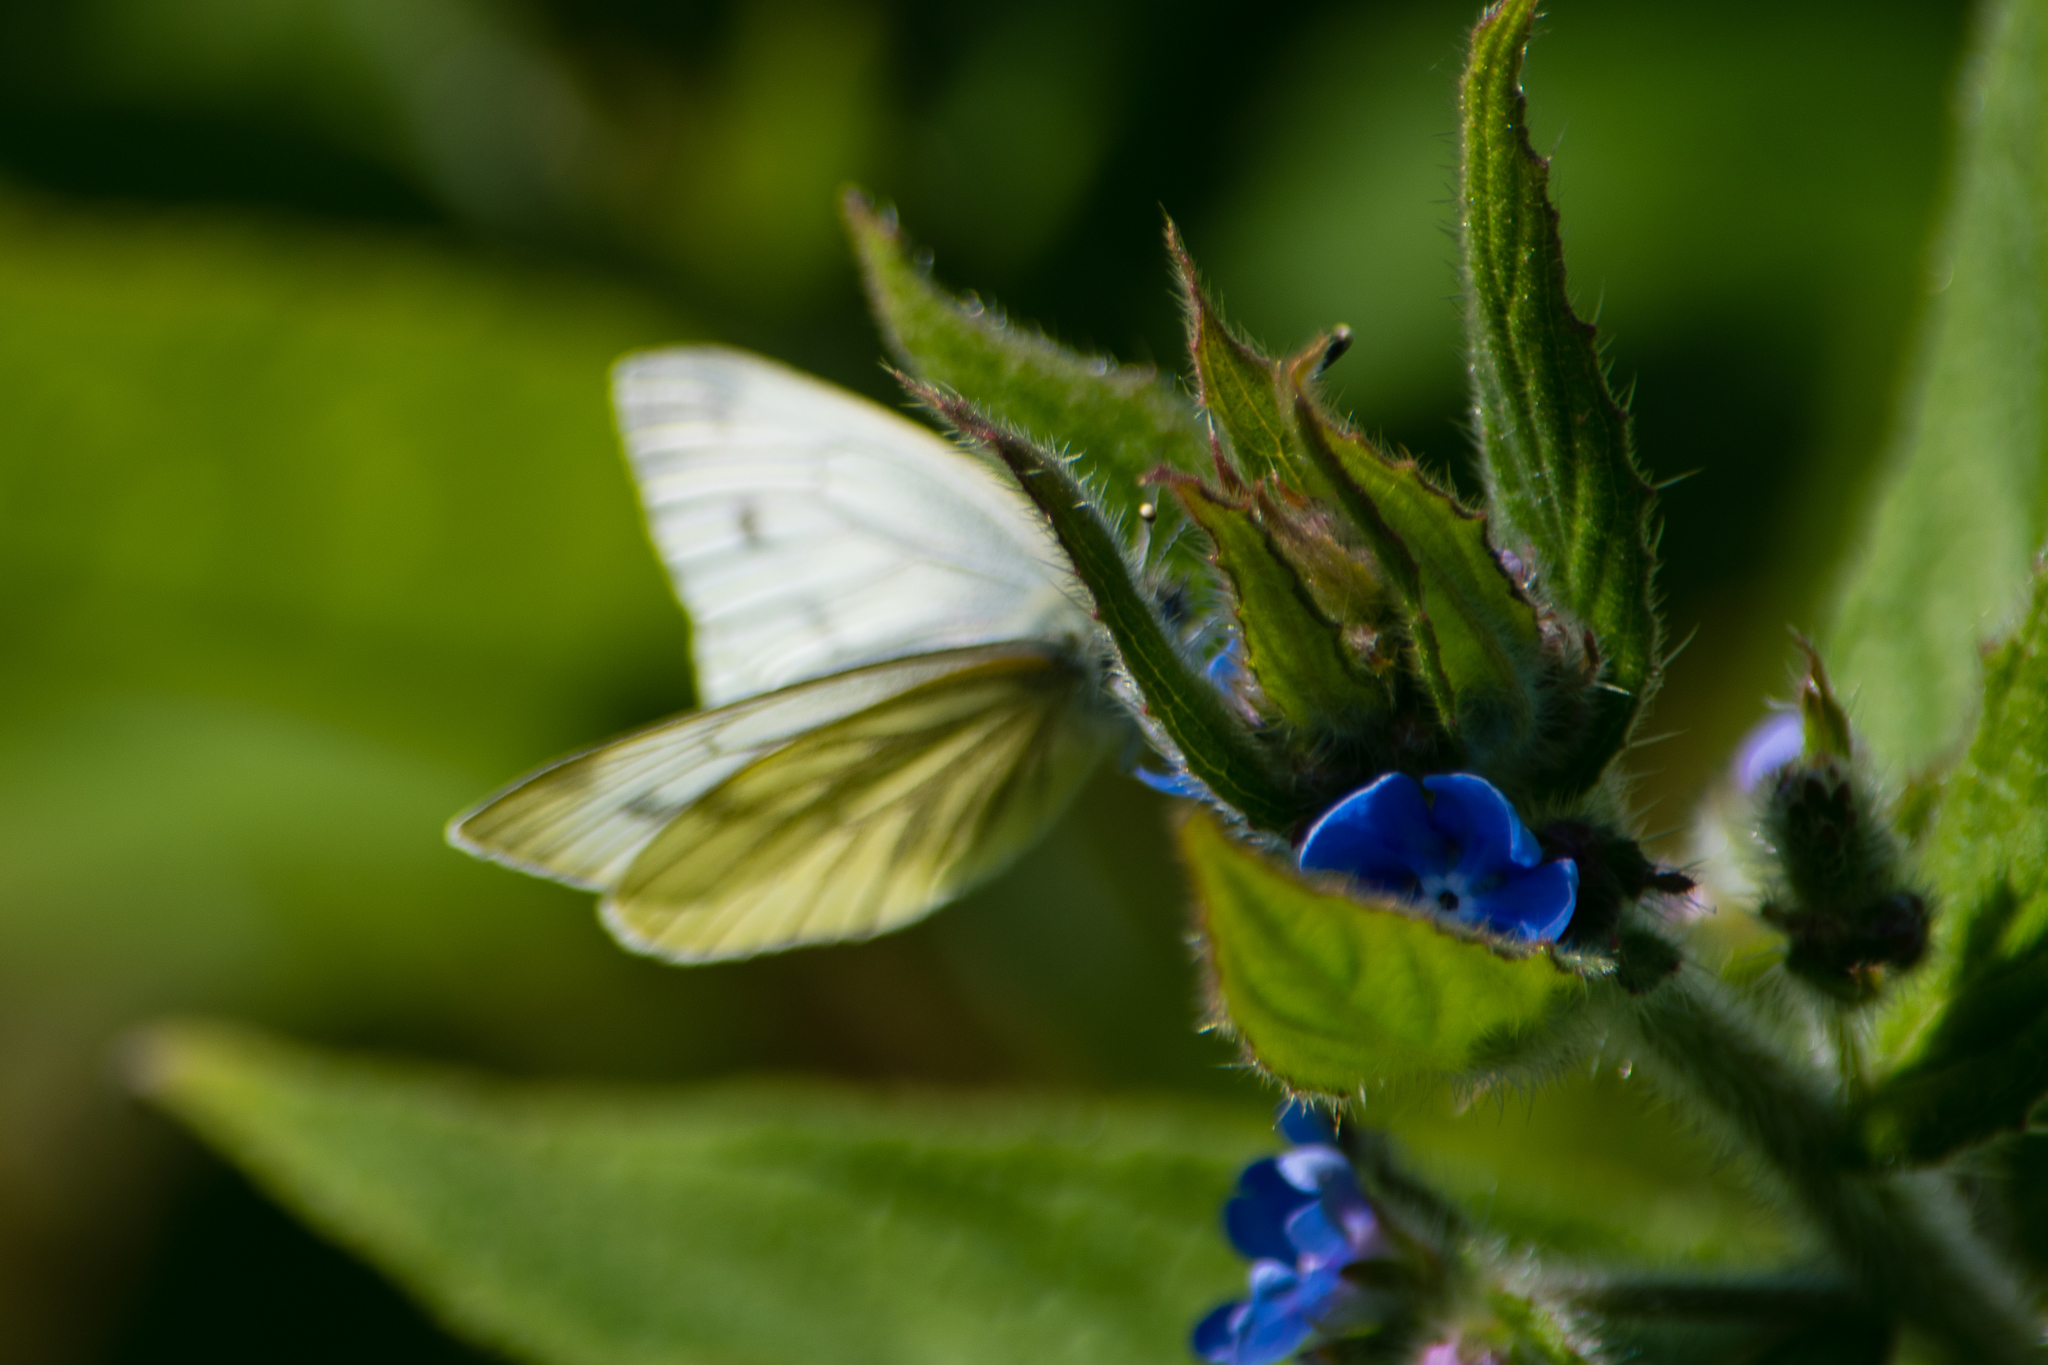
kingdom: Animalia
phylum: Arthropoda
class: Insecta
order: Lepidoptera
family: Pieridae
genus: Pieris
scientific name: Pieris napi
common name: Green-veined white
